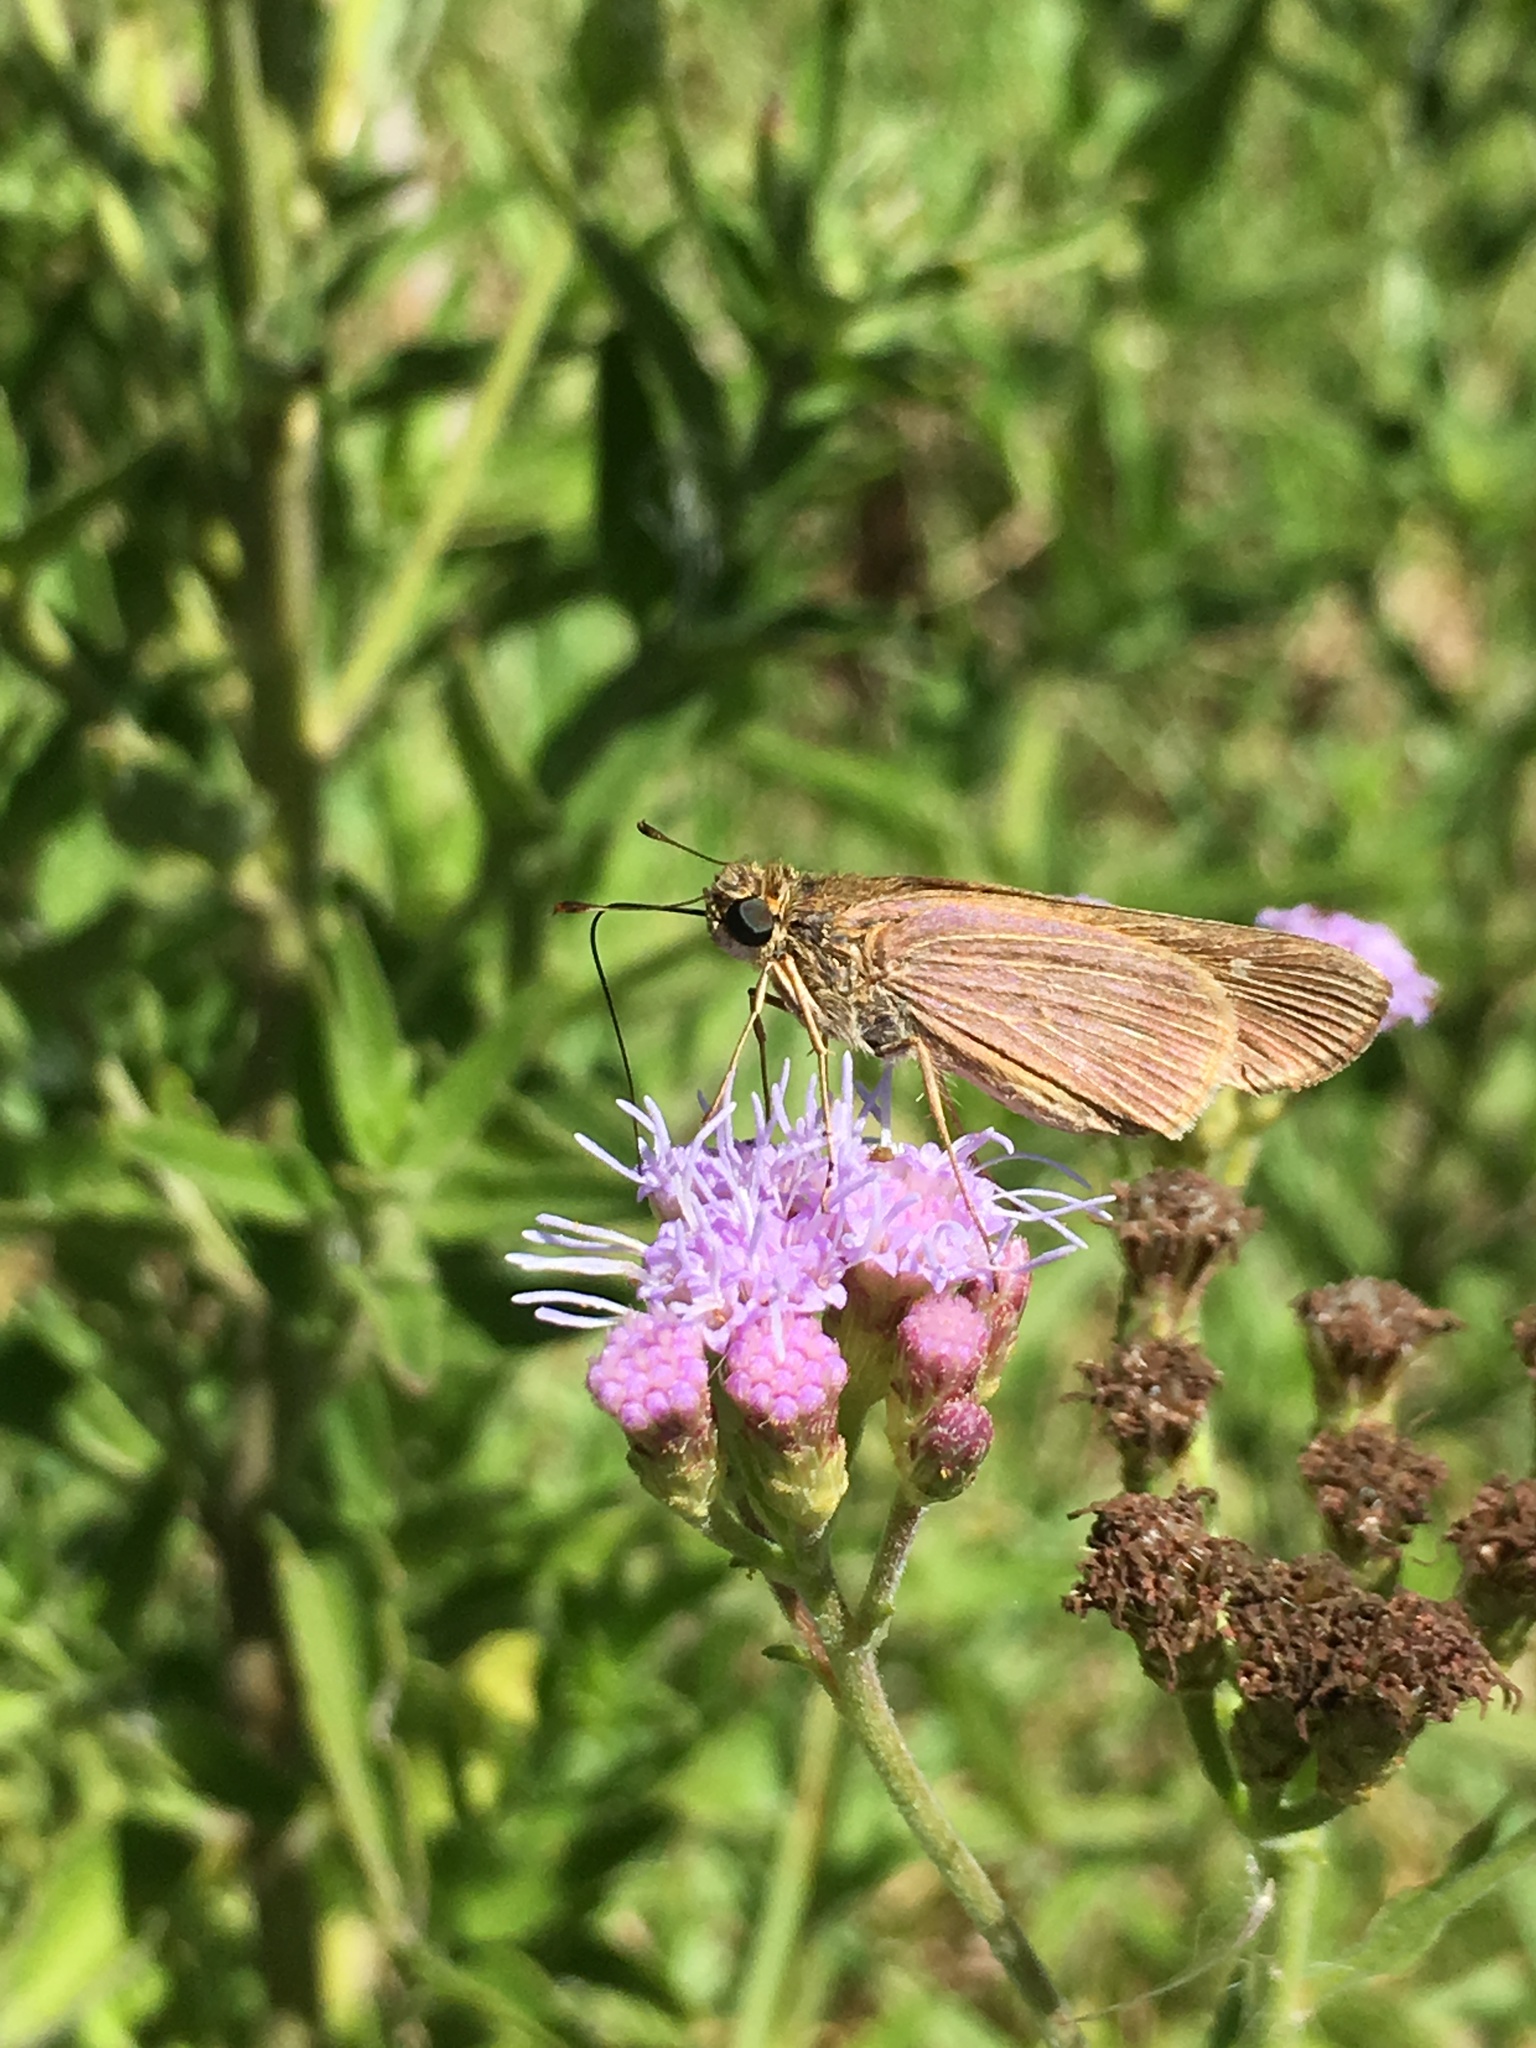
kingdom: Animalia
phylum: Arthropoda
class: Insecta
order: Lepidoptera
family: Hesperiidae
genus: Panoquina
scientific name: Panoquina ocola
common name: Ocola skipper
